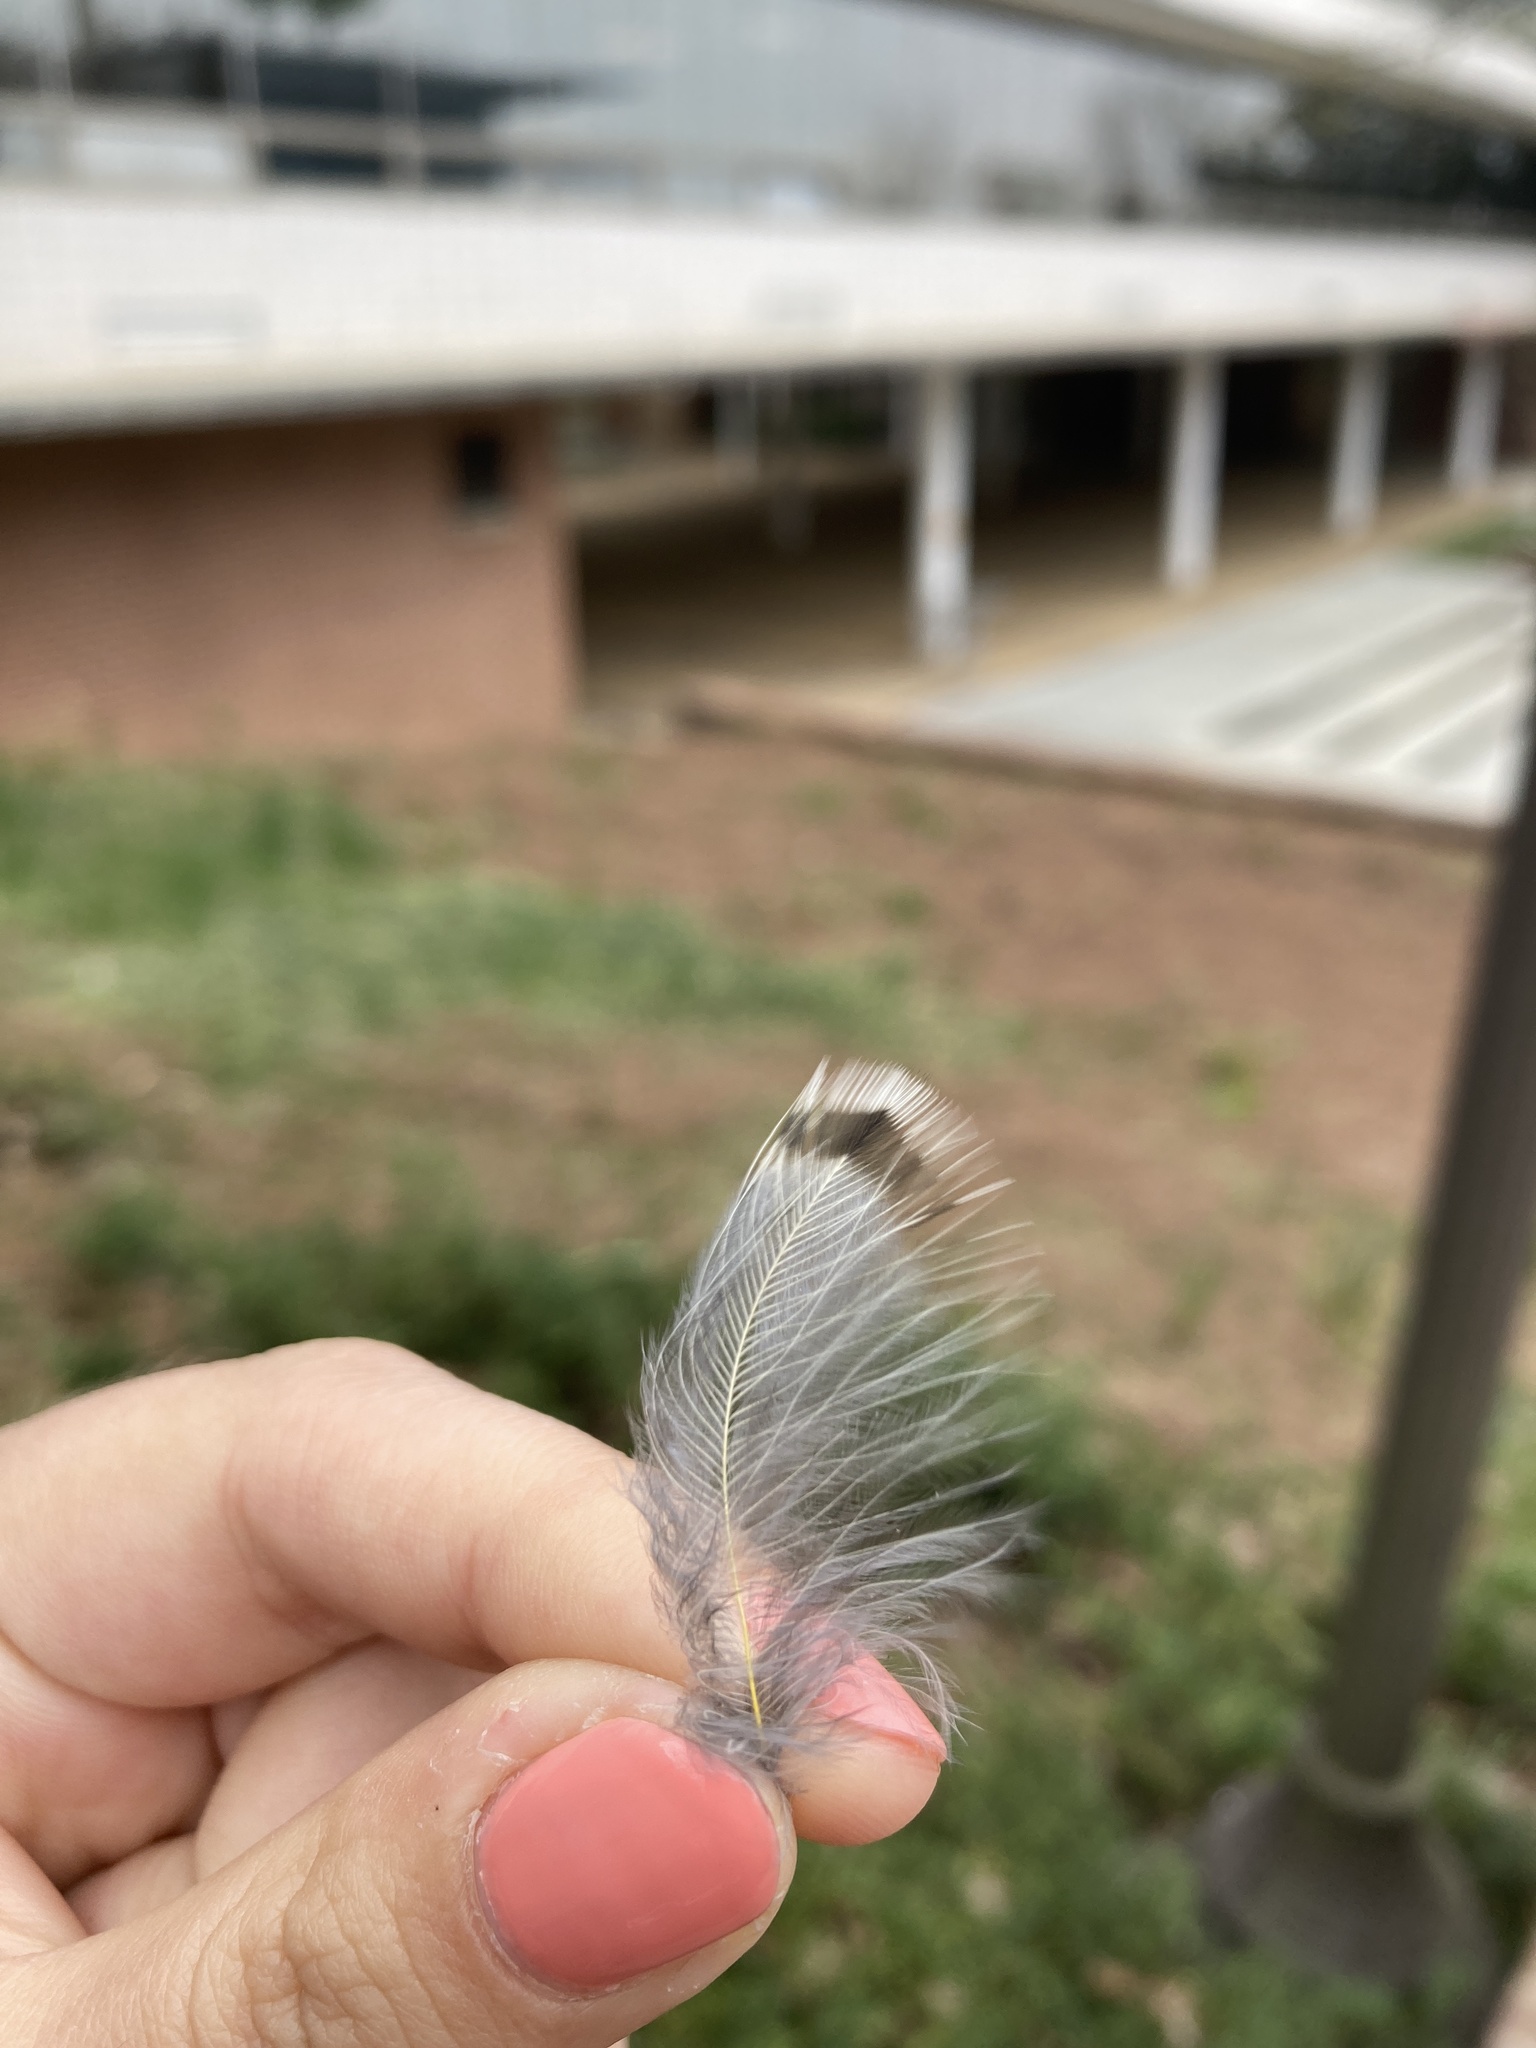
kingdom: Animalia
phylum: Chordata
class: Aves
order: Piciformes
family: Picidae
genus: Colaptes
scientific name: Colaptes auratus
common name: Northern flicker
